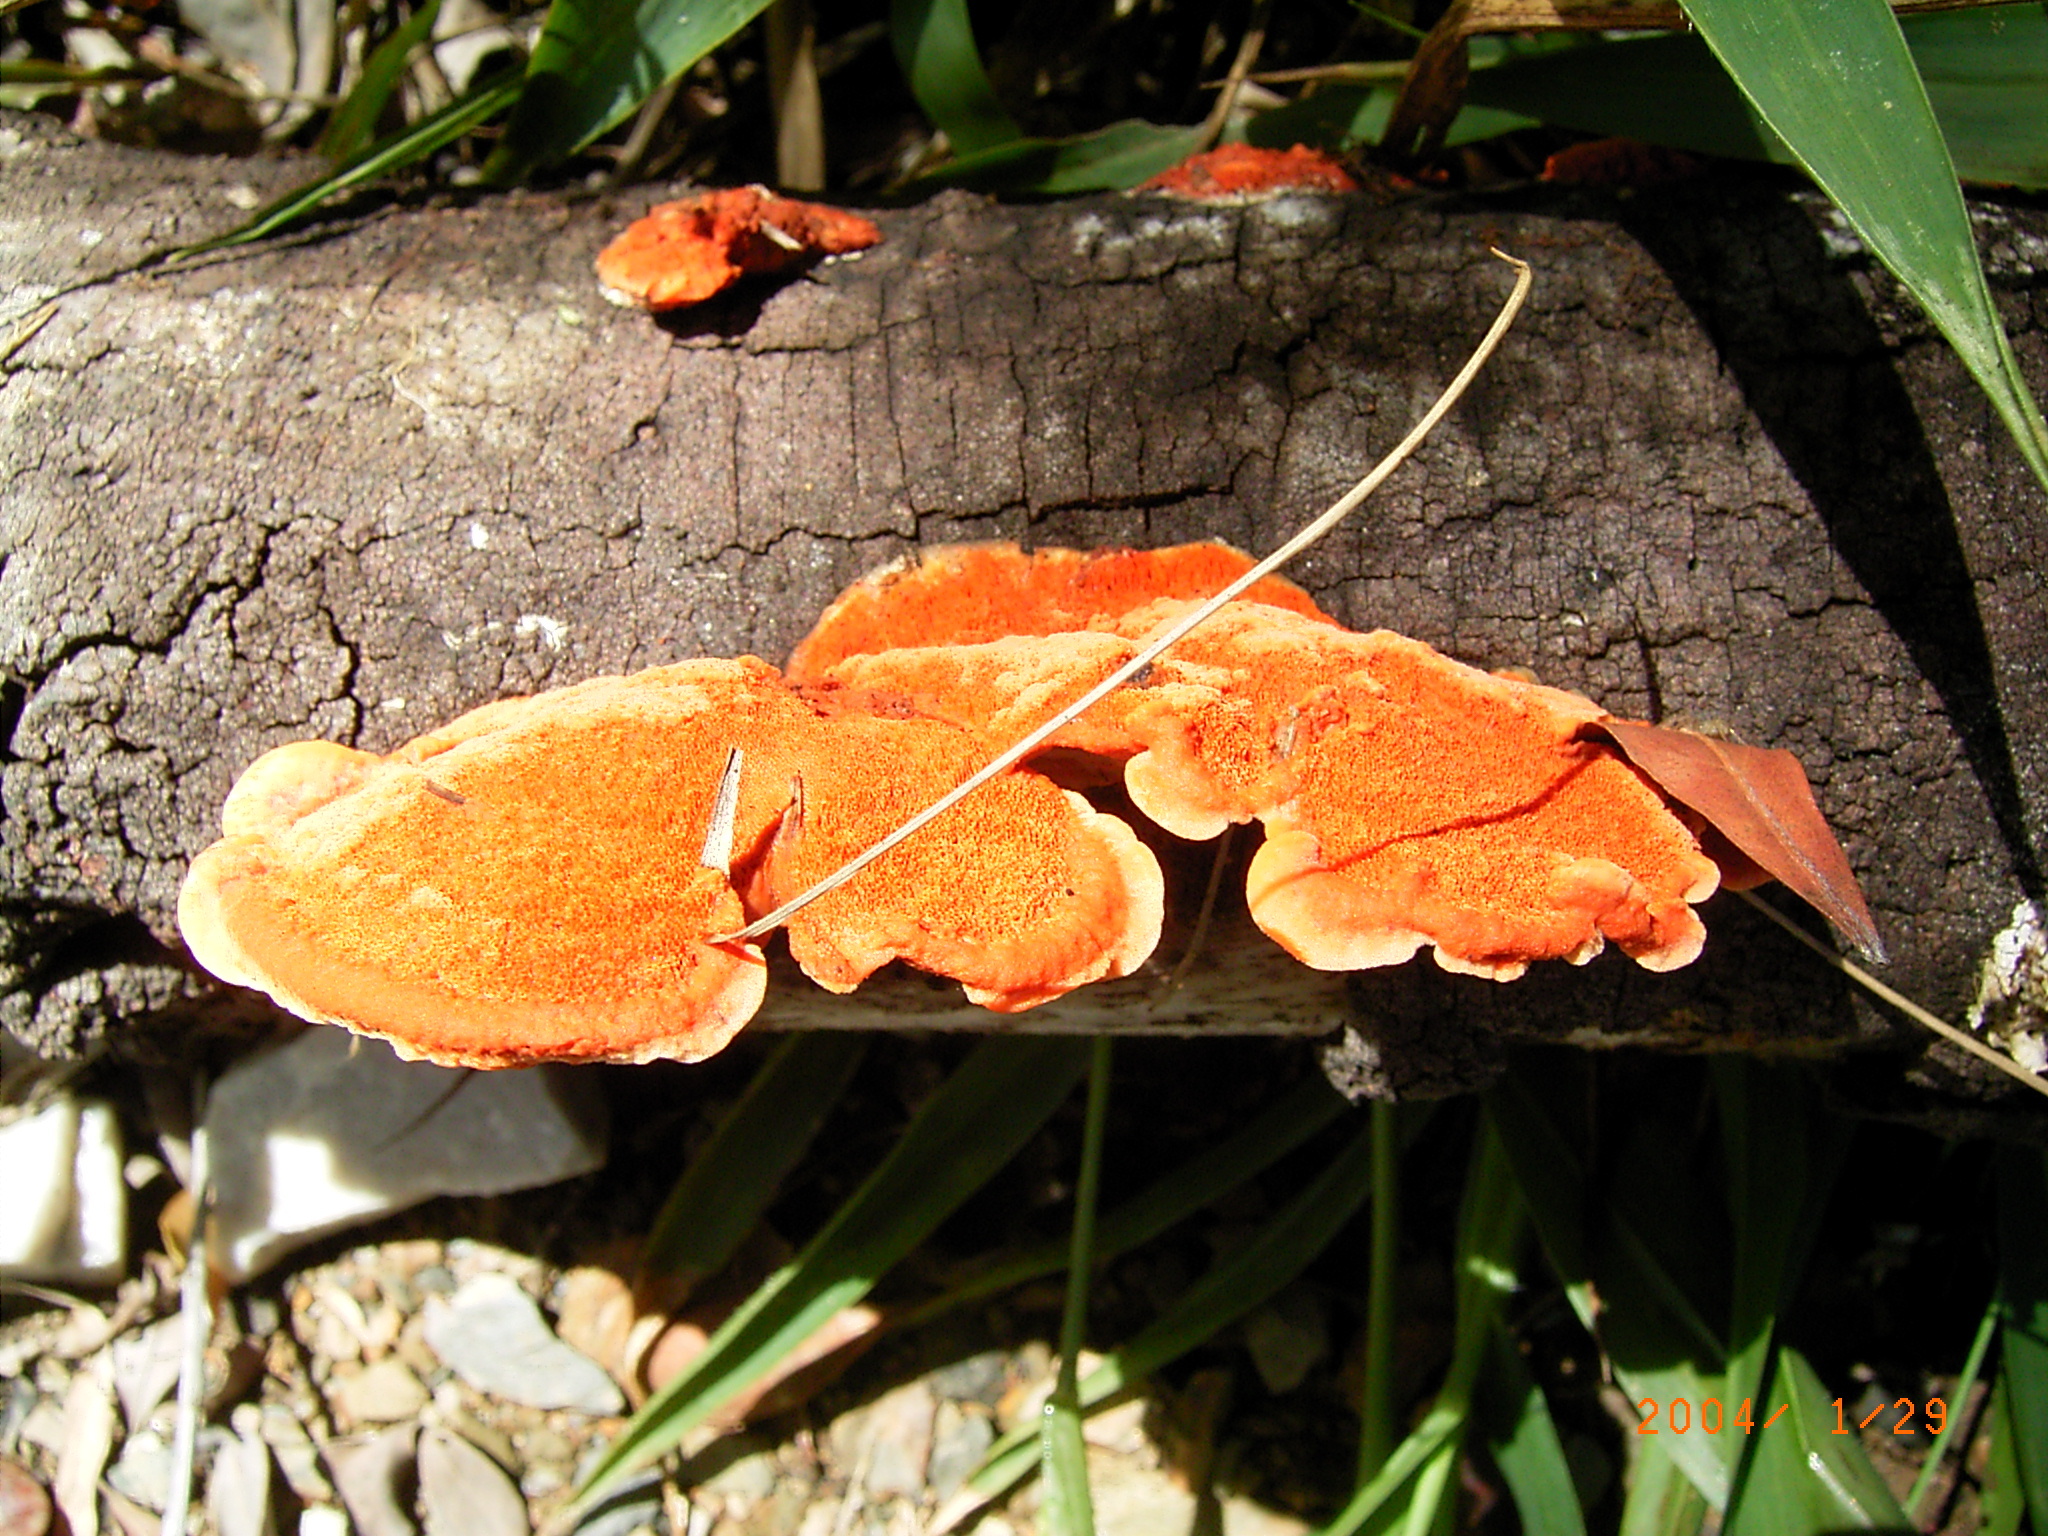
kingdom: Fungi
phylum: Basidiomycota
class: Agaricomycetes
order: Polyporales
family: Polyporaceae
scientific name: Polyporaceae
